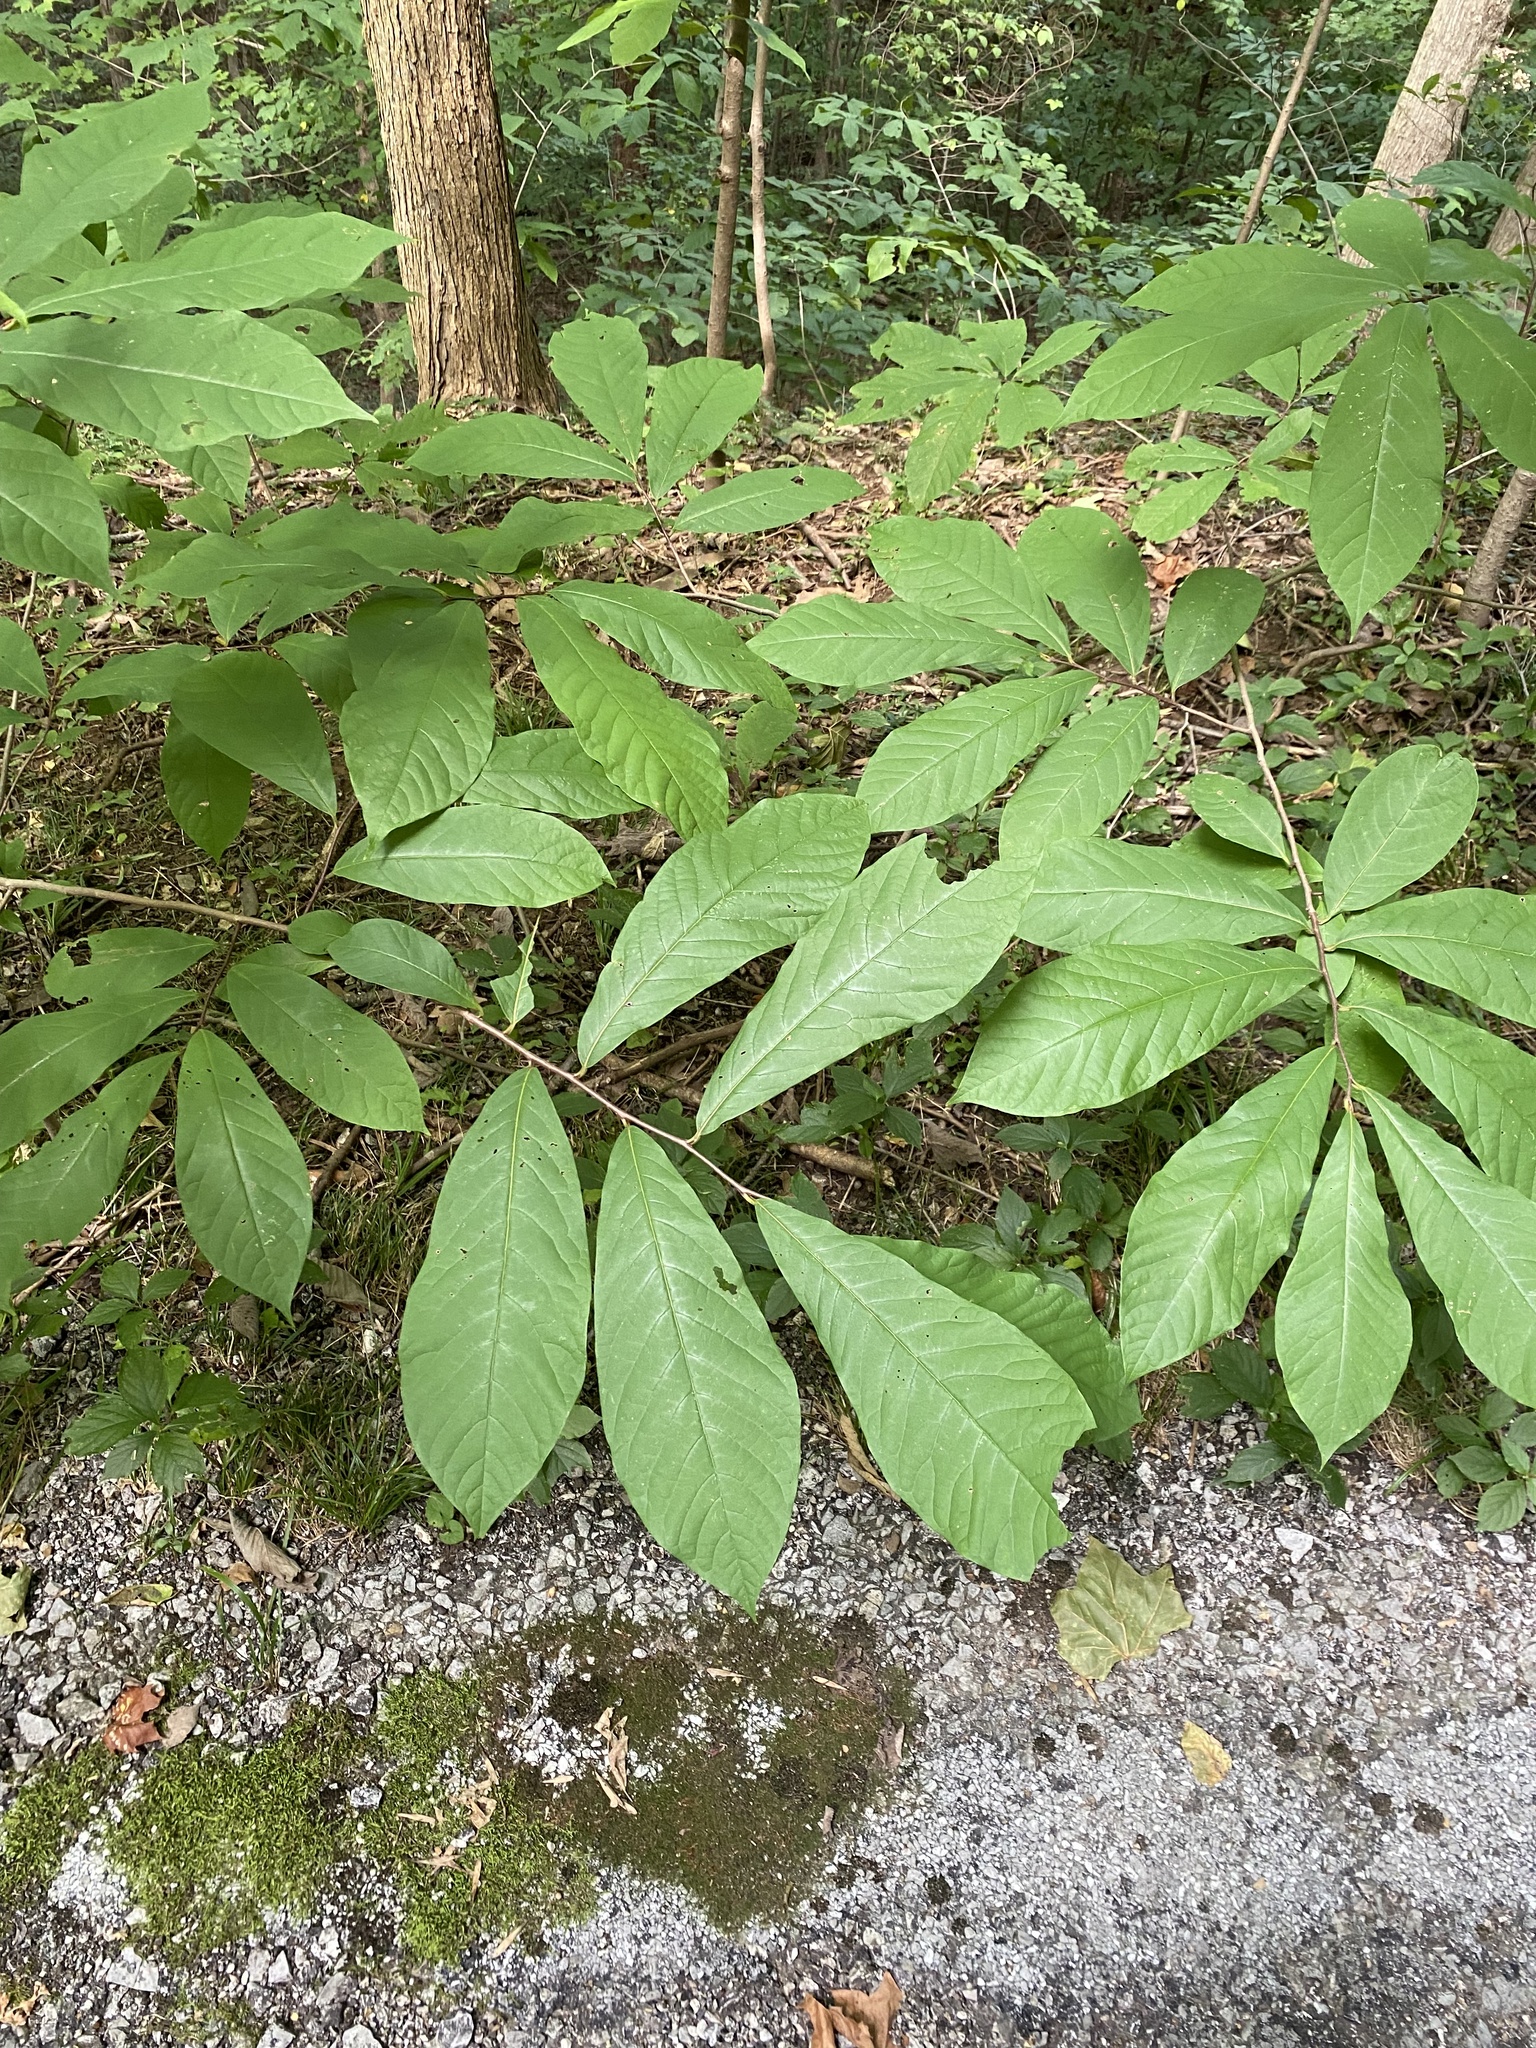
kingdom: Plantae
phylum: Tracheophyta
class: Magnoliopsida
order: Magnoliales
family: Annonaceae
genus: Asimina
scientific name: Asimina triloba
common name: Dog-banana
